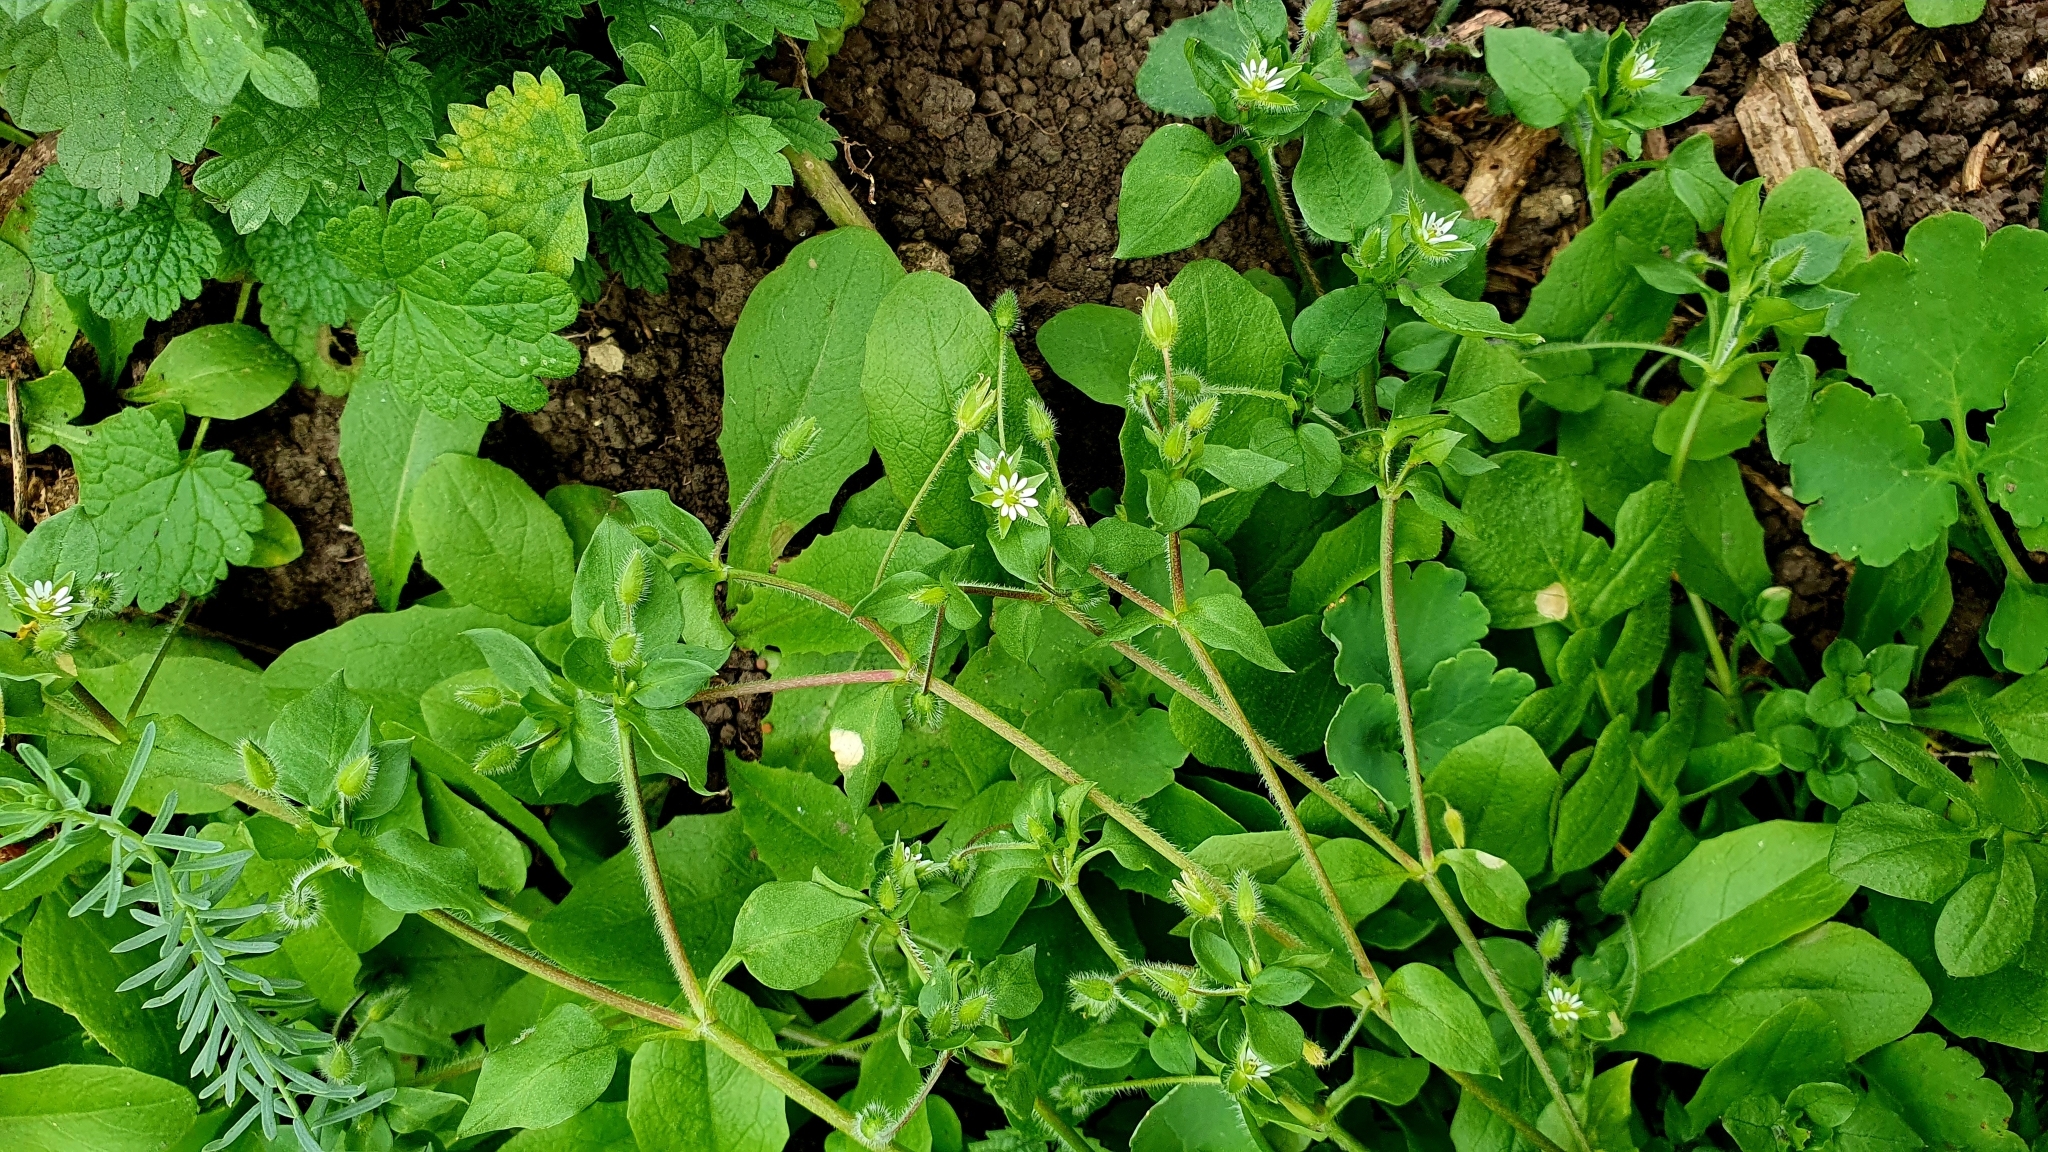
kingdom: Plantae
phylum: Tracheophyta
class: Magnoliopsida
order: Caryophyllales
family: Caryophyllaceae
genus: Stellaria
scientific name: Stellaria media
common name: Common chickweed
